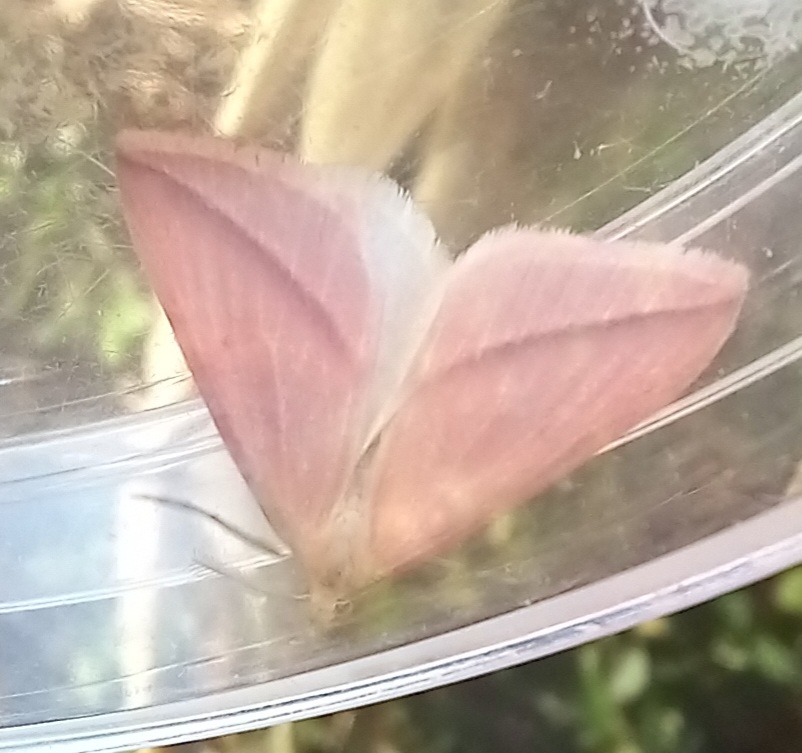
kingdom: Animalia
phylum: Arthropoda
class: Insecta
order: Lepidoptera
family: Geometridae
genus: Rhodometra
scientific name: Rhodometra sacraria
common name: Vestal
